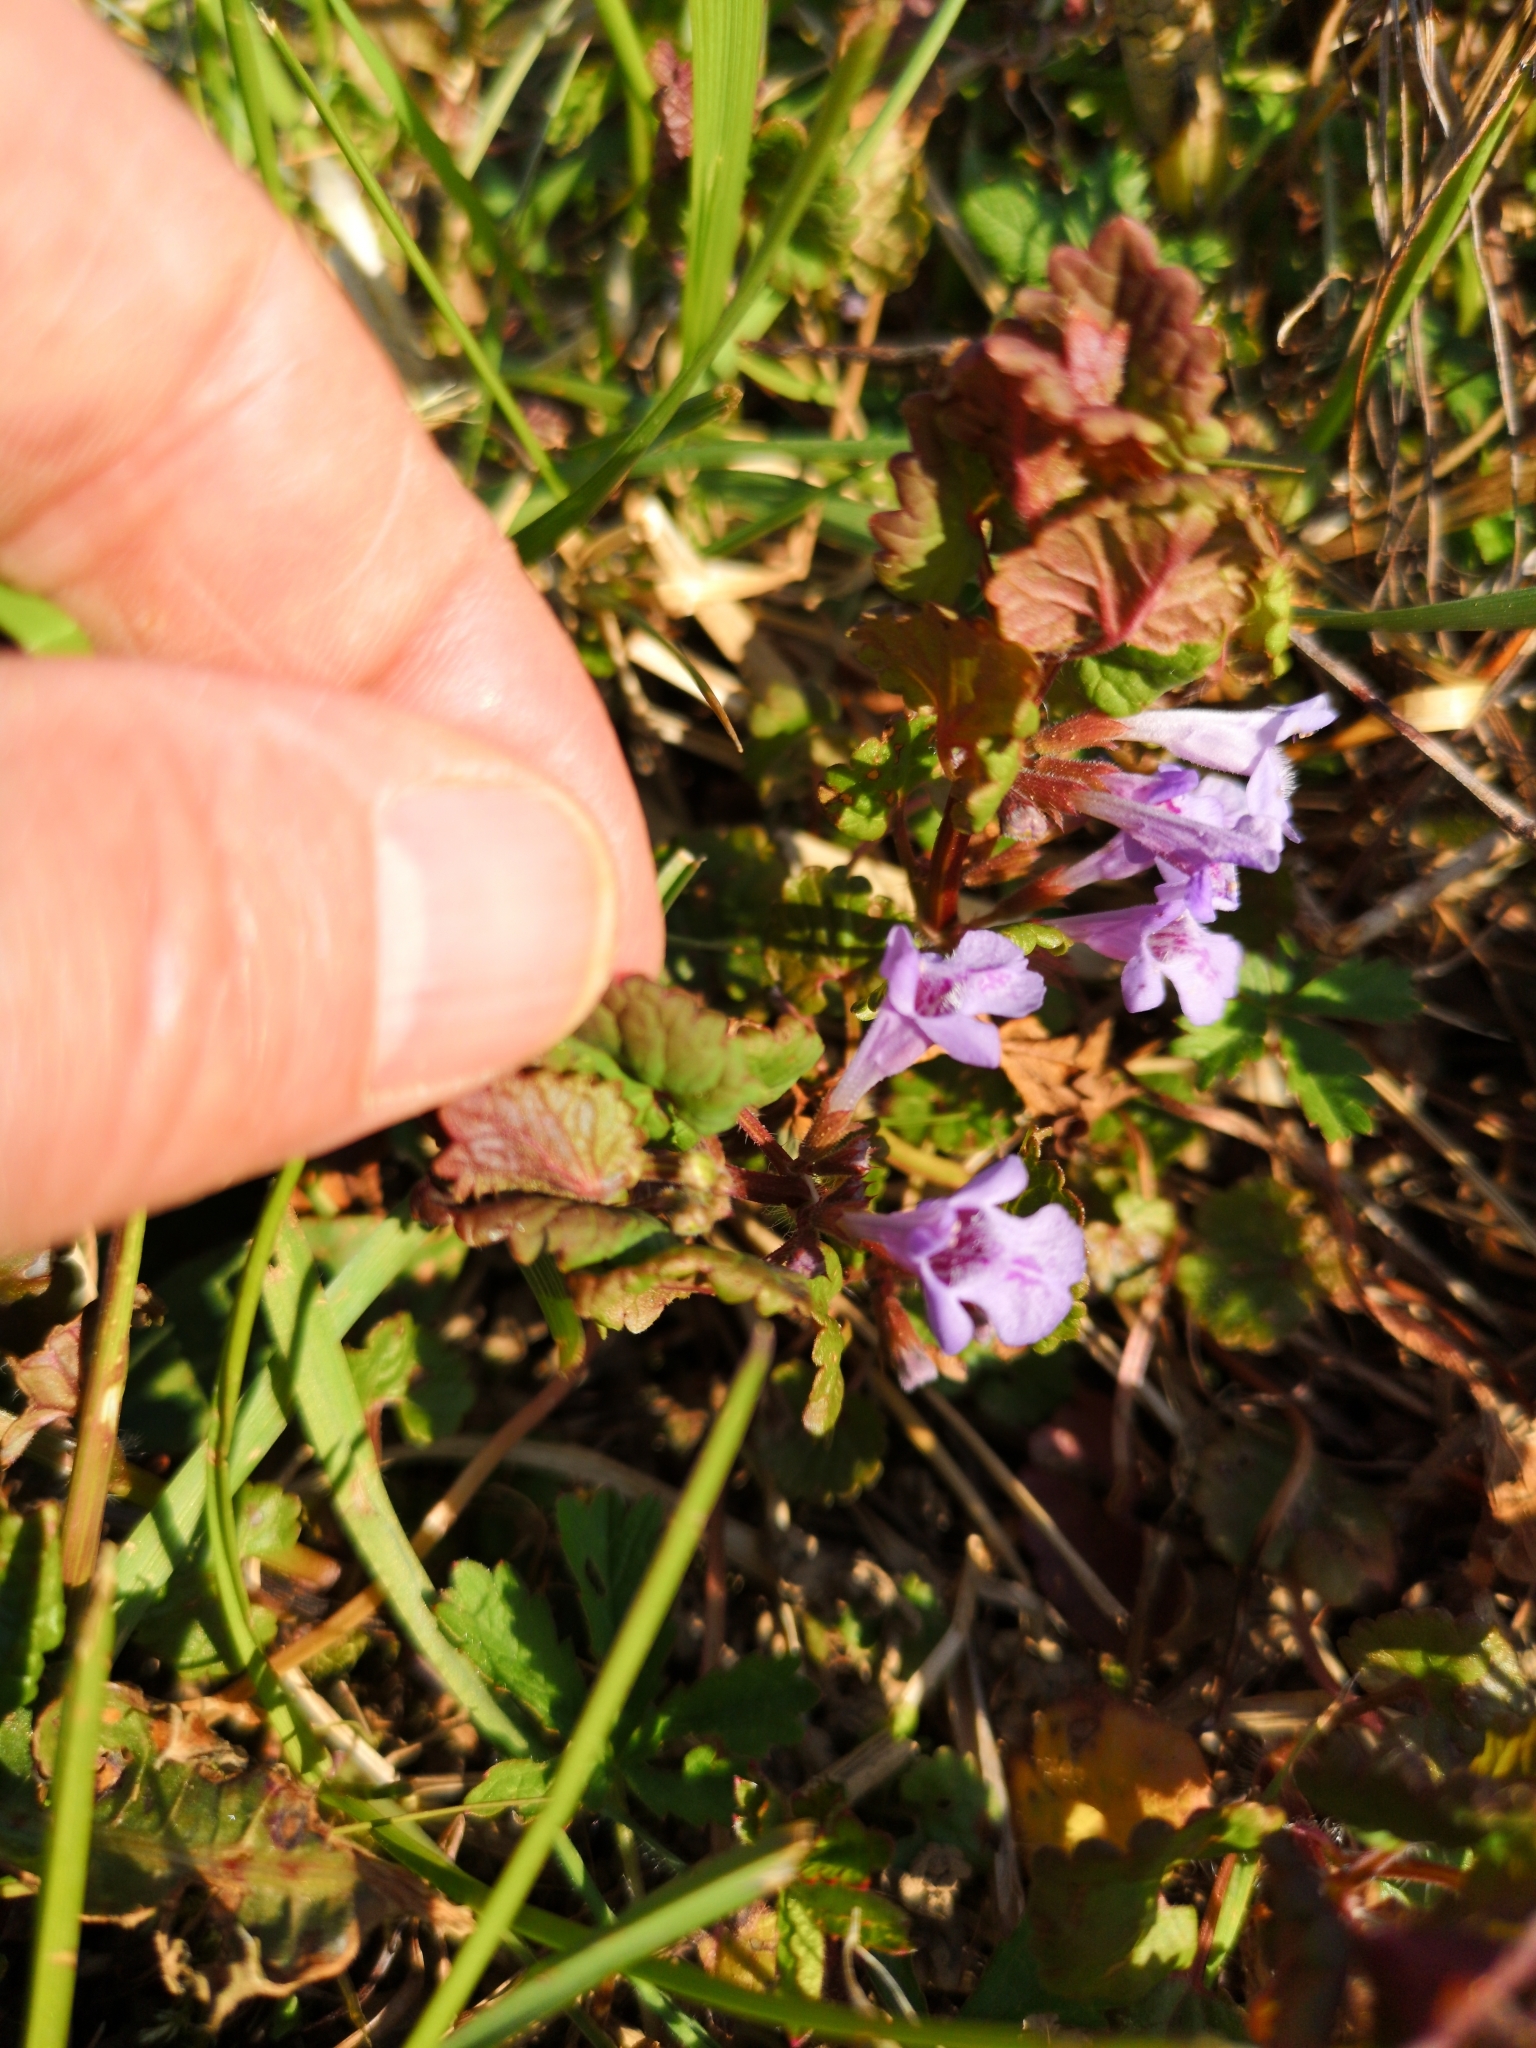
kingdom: Plantae
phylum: Tracheophyta
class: Magnoliopsida
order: Lamiales
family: Lamiaceae
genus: Glechoma
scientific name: Glechoma hederacea
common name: Ground ivy
